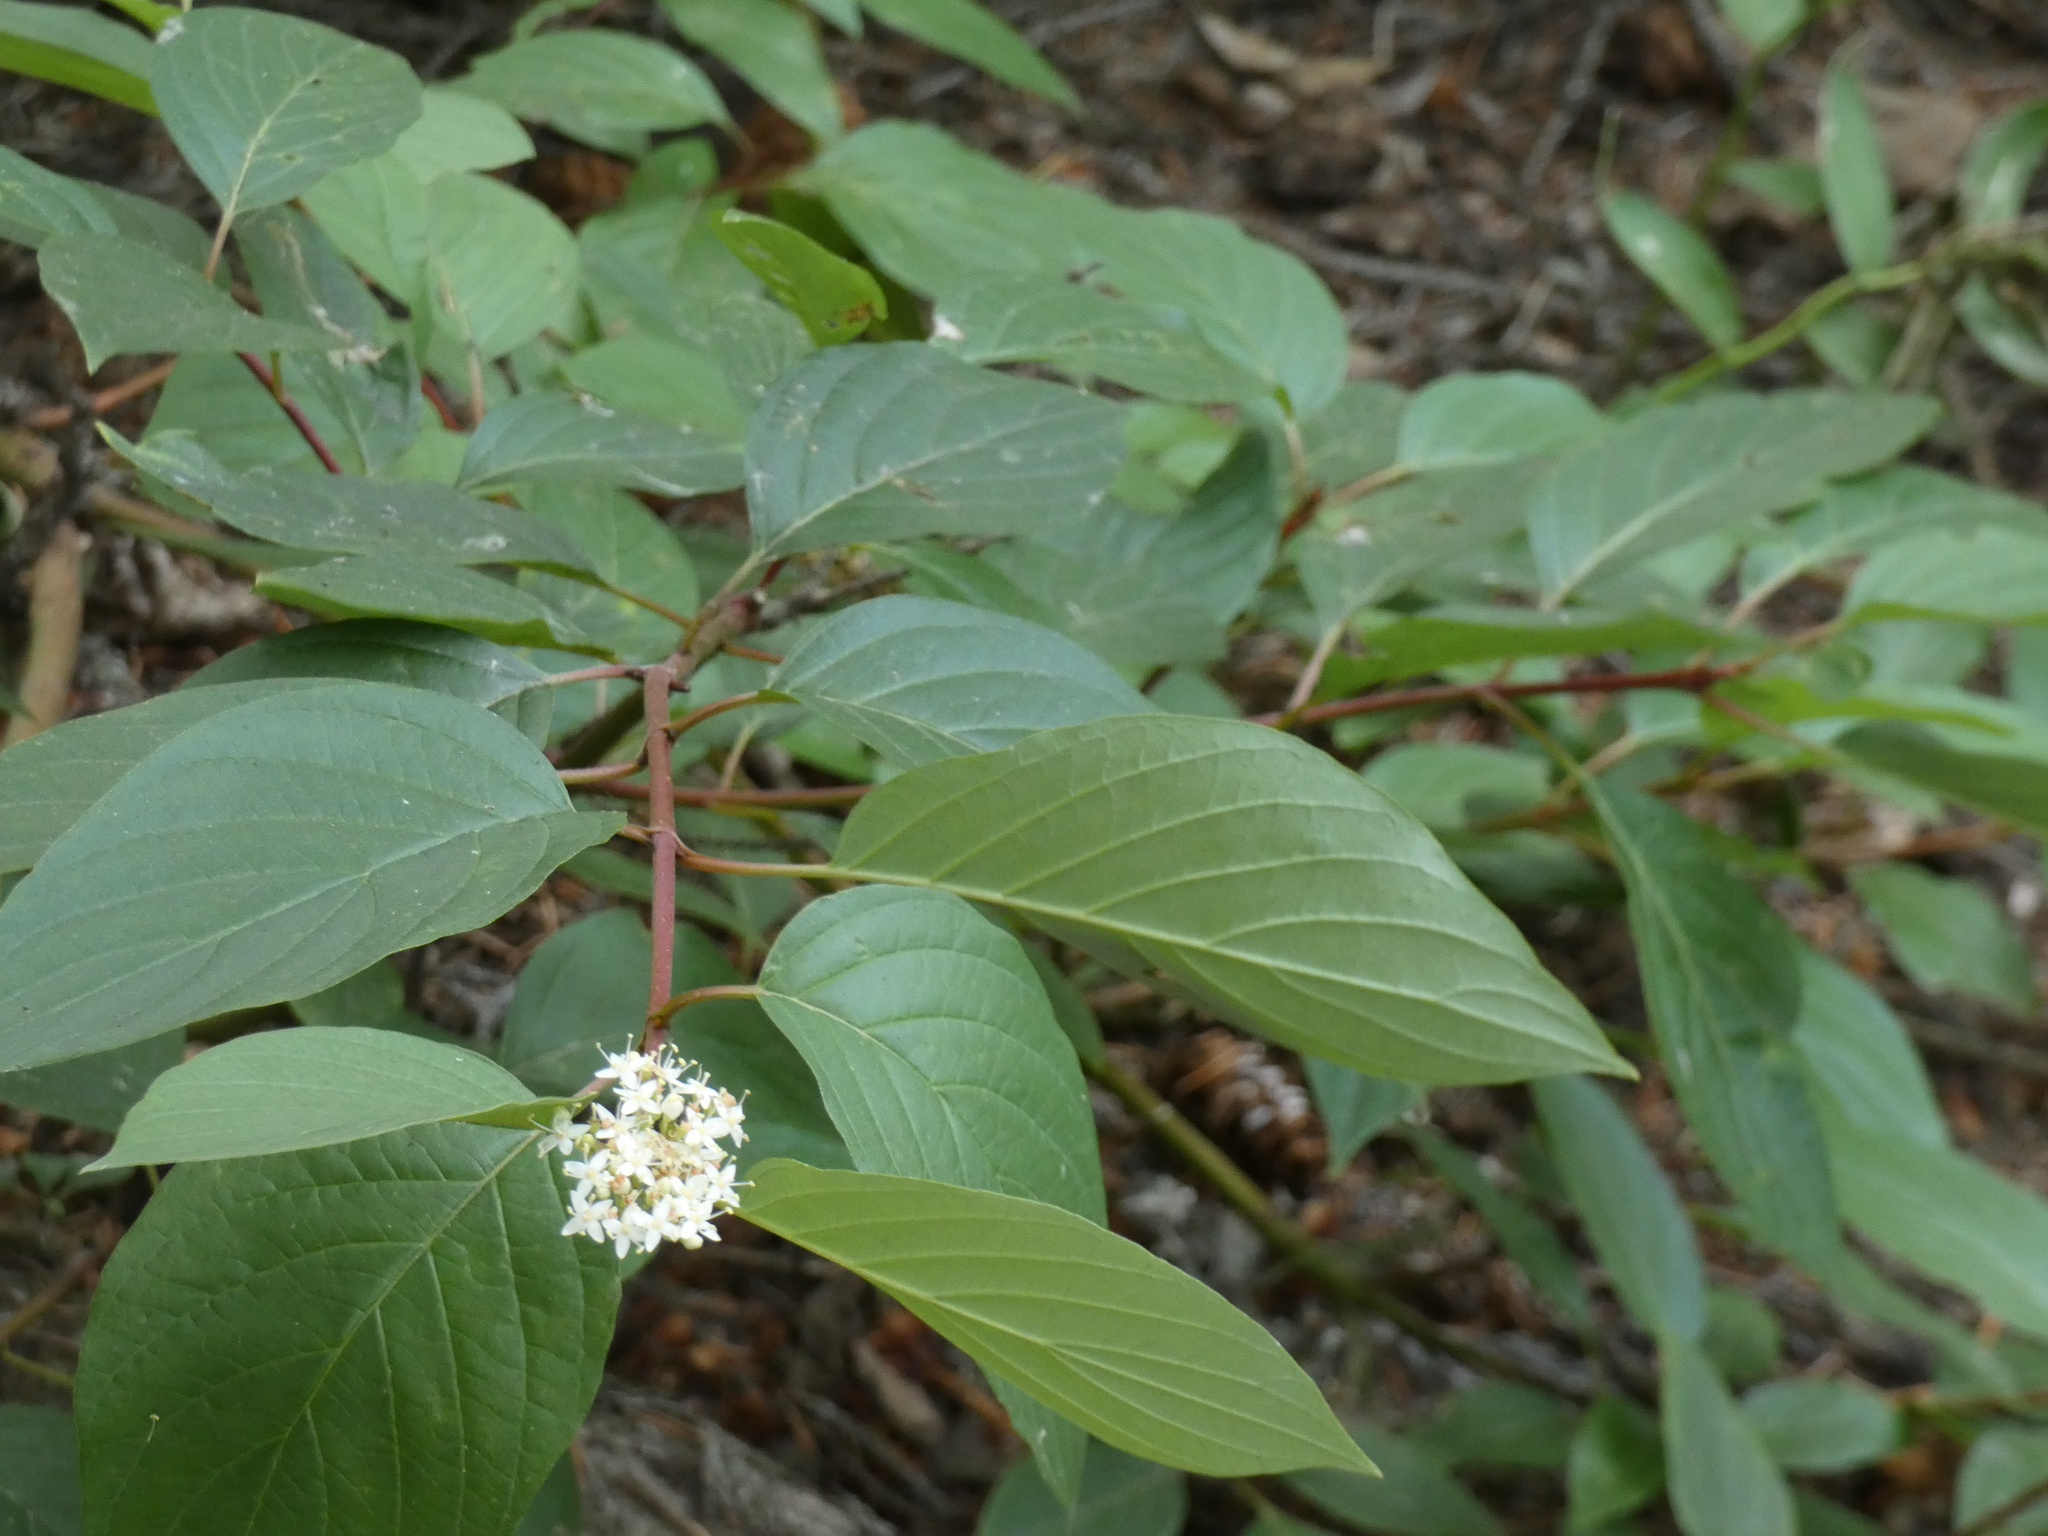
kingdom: Plantae
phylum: Tracheophyta
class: Magnoliopsida
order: Cornales
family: Cornaceae
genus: Cornus
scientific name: Cornus sericea
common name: Red-osier dogwood
